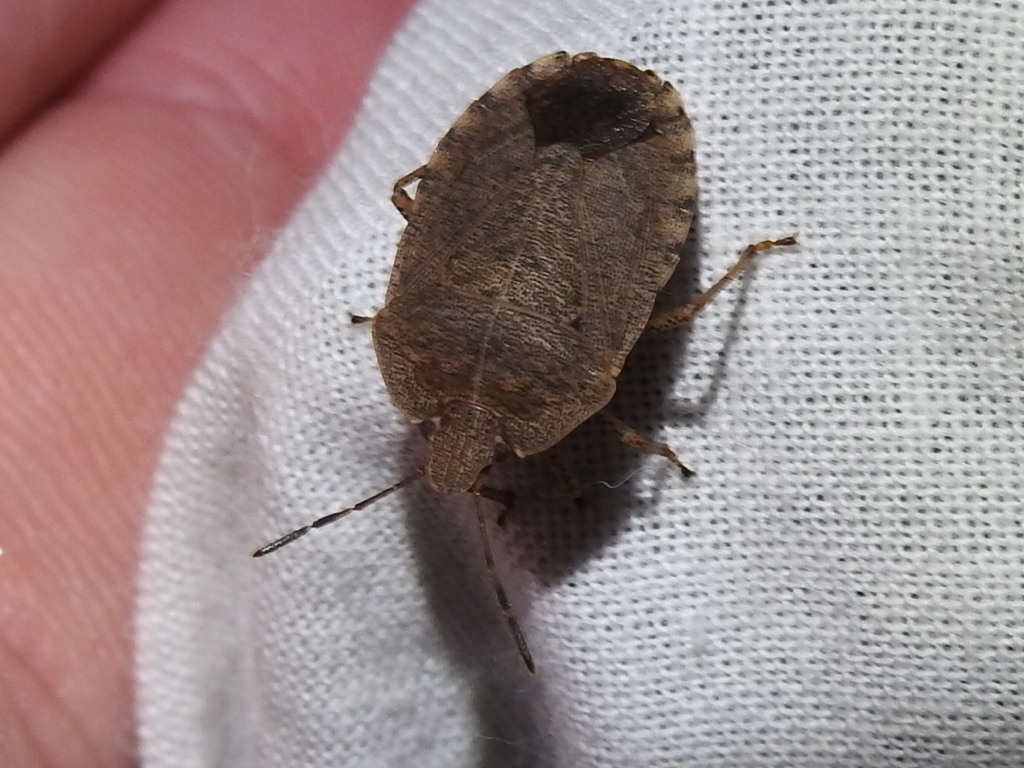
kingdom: Animalia
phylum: Arthropoda
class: Insecta
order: Hemiptera
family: Pentatomidae
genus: Menecles
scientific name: Menecles insertus
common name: Elf shoe stink bug
